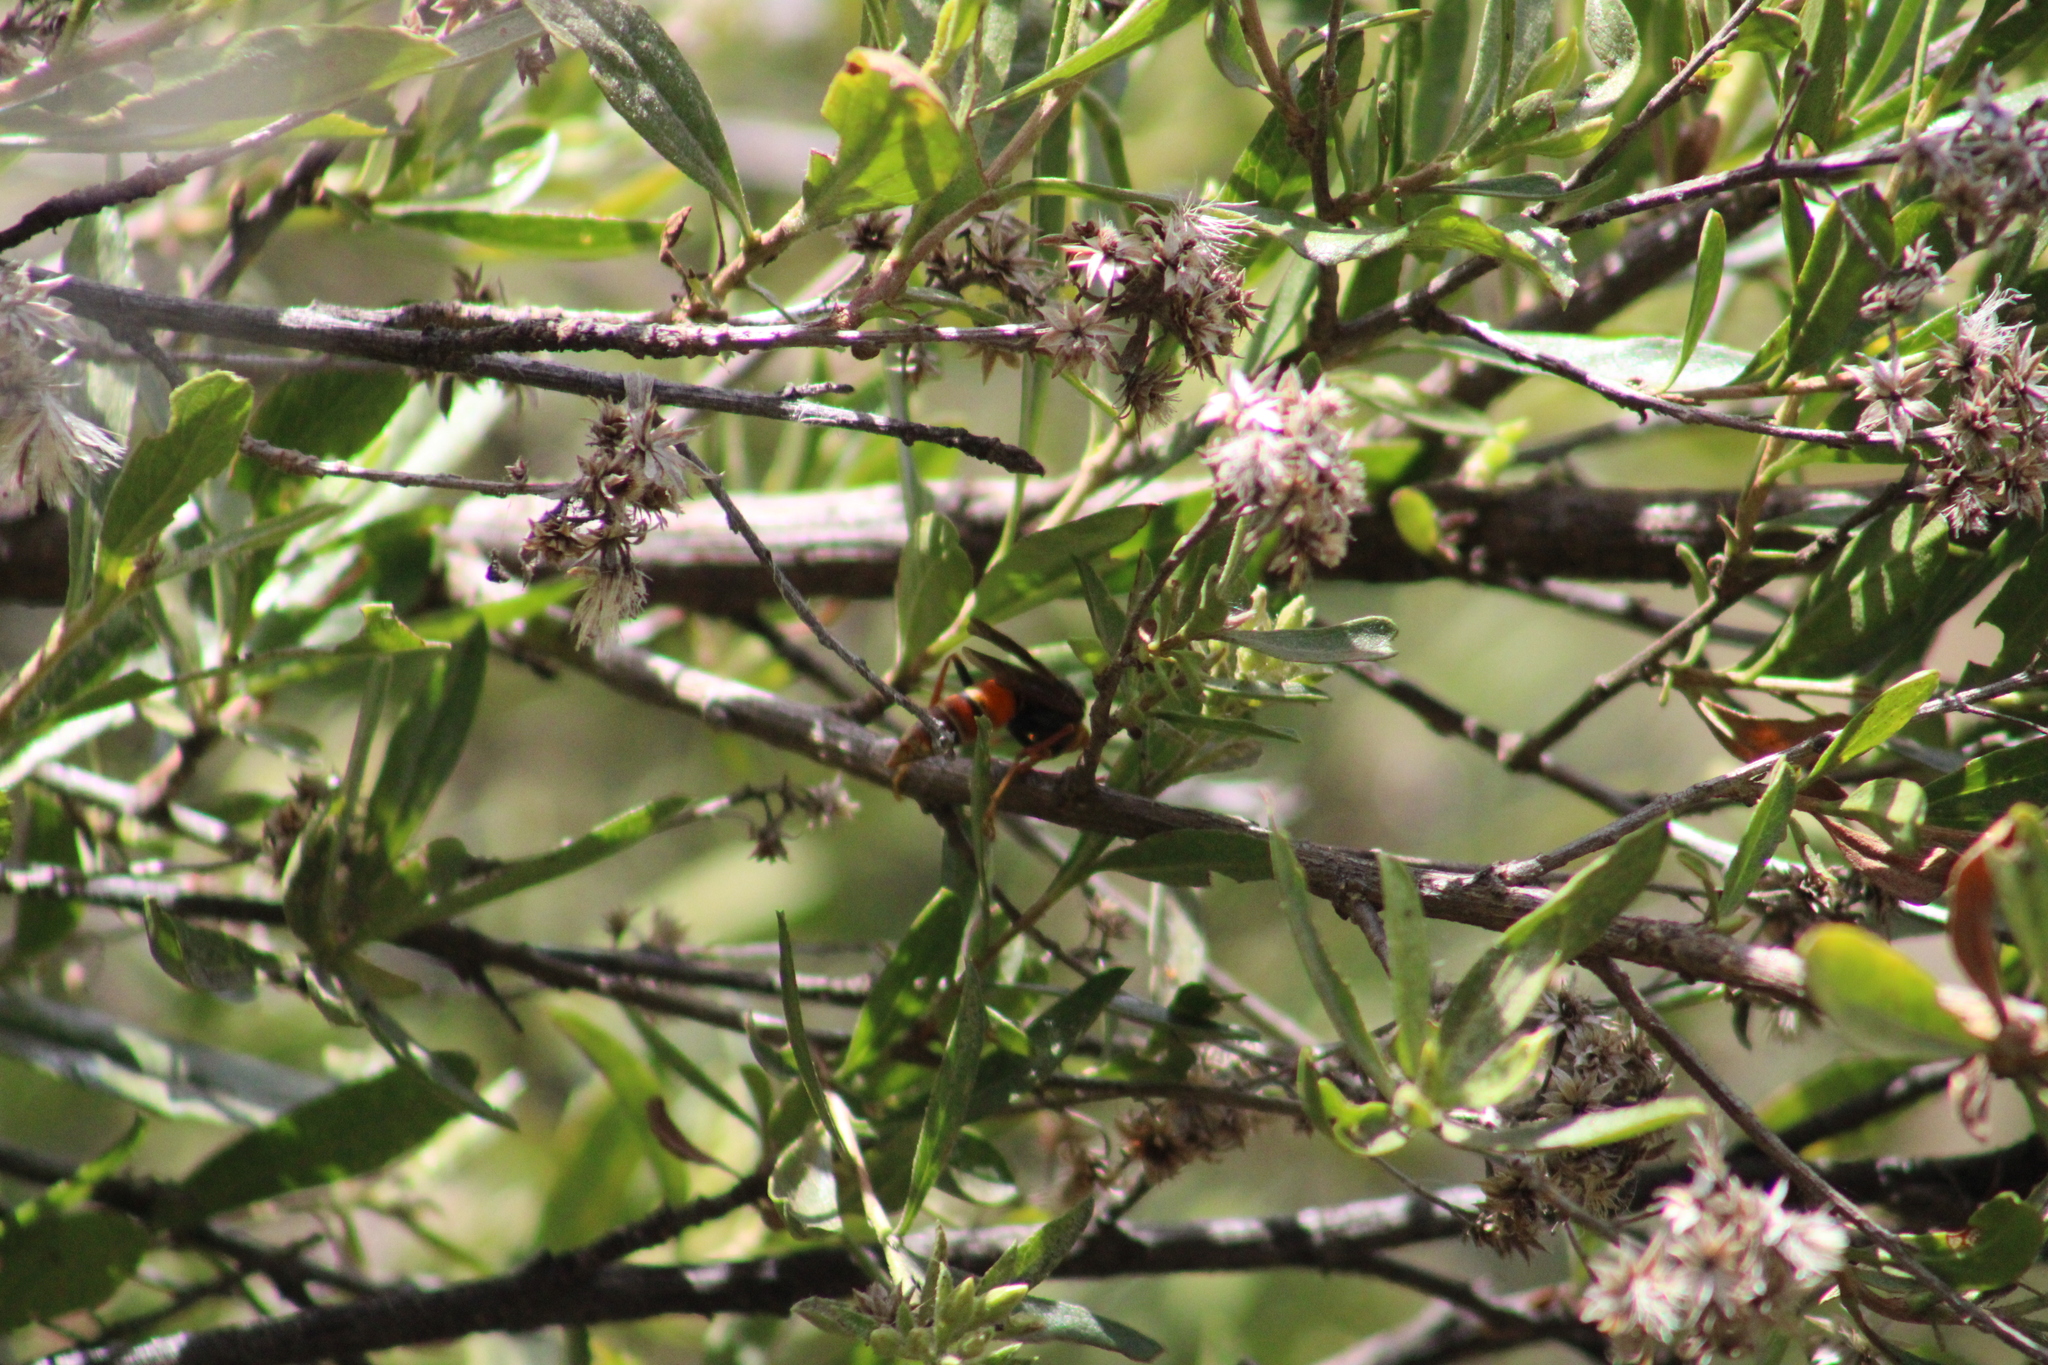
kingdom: Animalia
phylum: Arthropoda
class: Insecta
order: Hymenoptera
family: Eumenidae
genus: Polistes
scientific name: Polistes buyssoni
